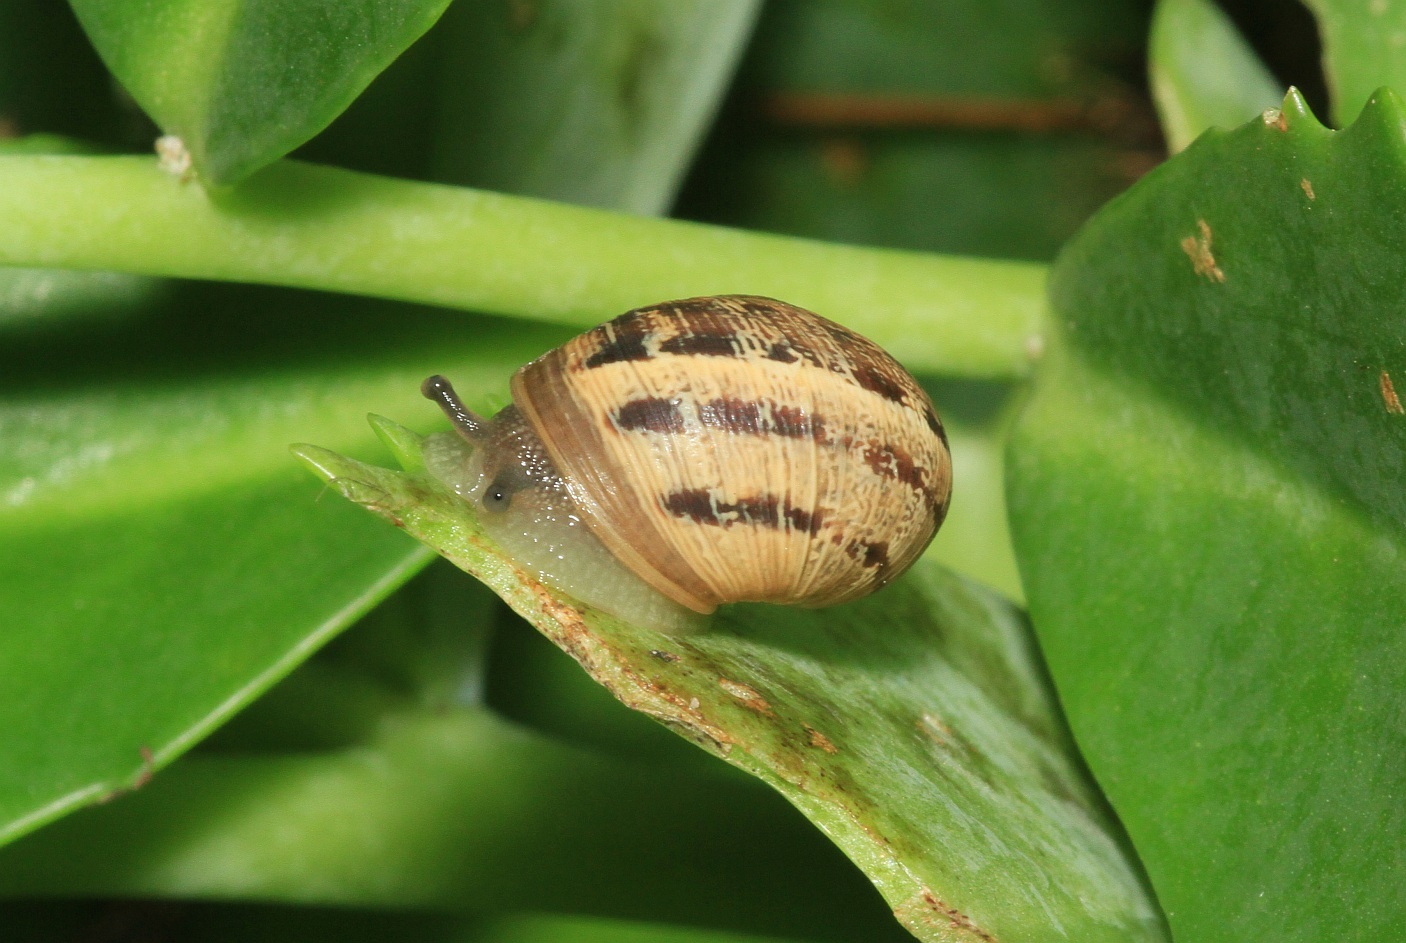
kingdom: Animalia
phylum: Mollusca
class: Gastropoda
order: Stylommatophora
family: Helicidae
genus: Cornu
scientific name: Cornu aspersum
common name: Brown garden snail
